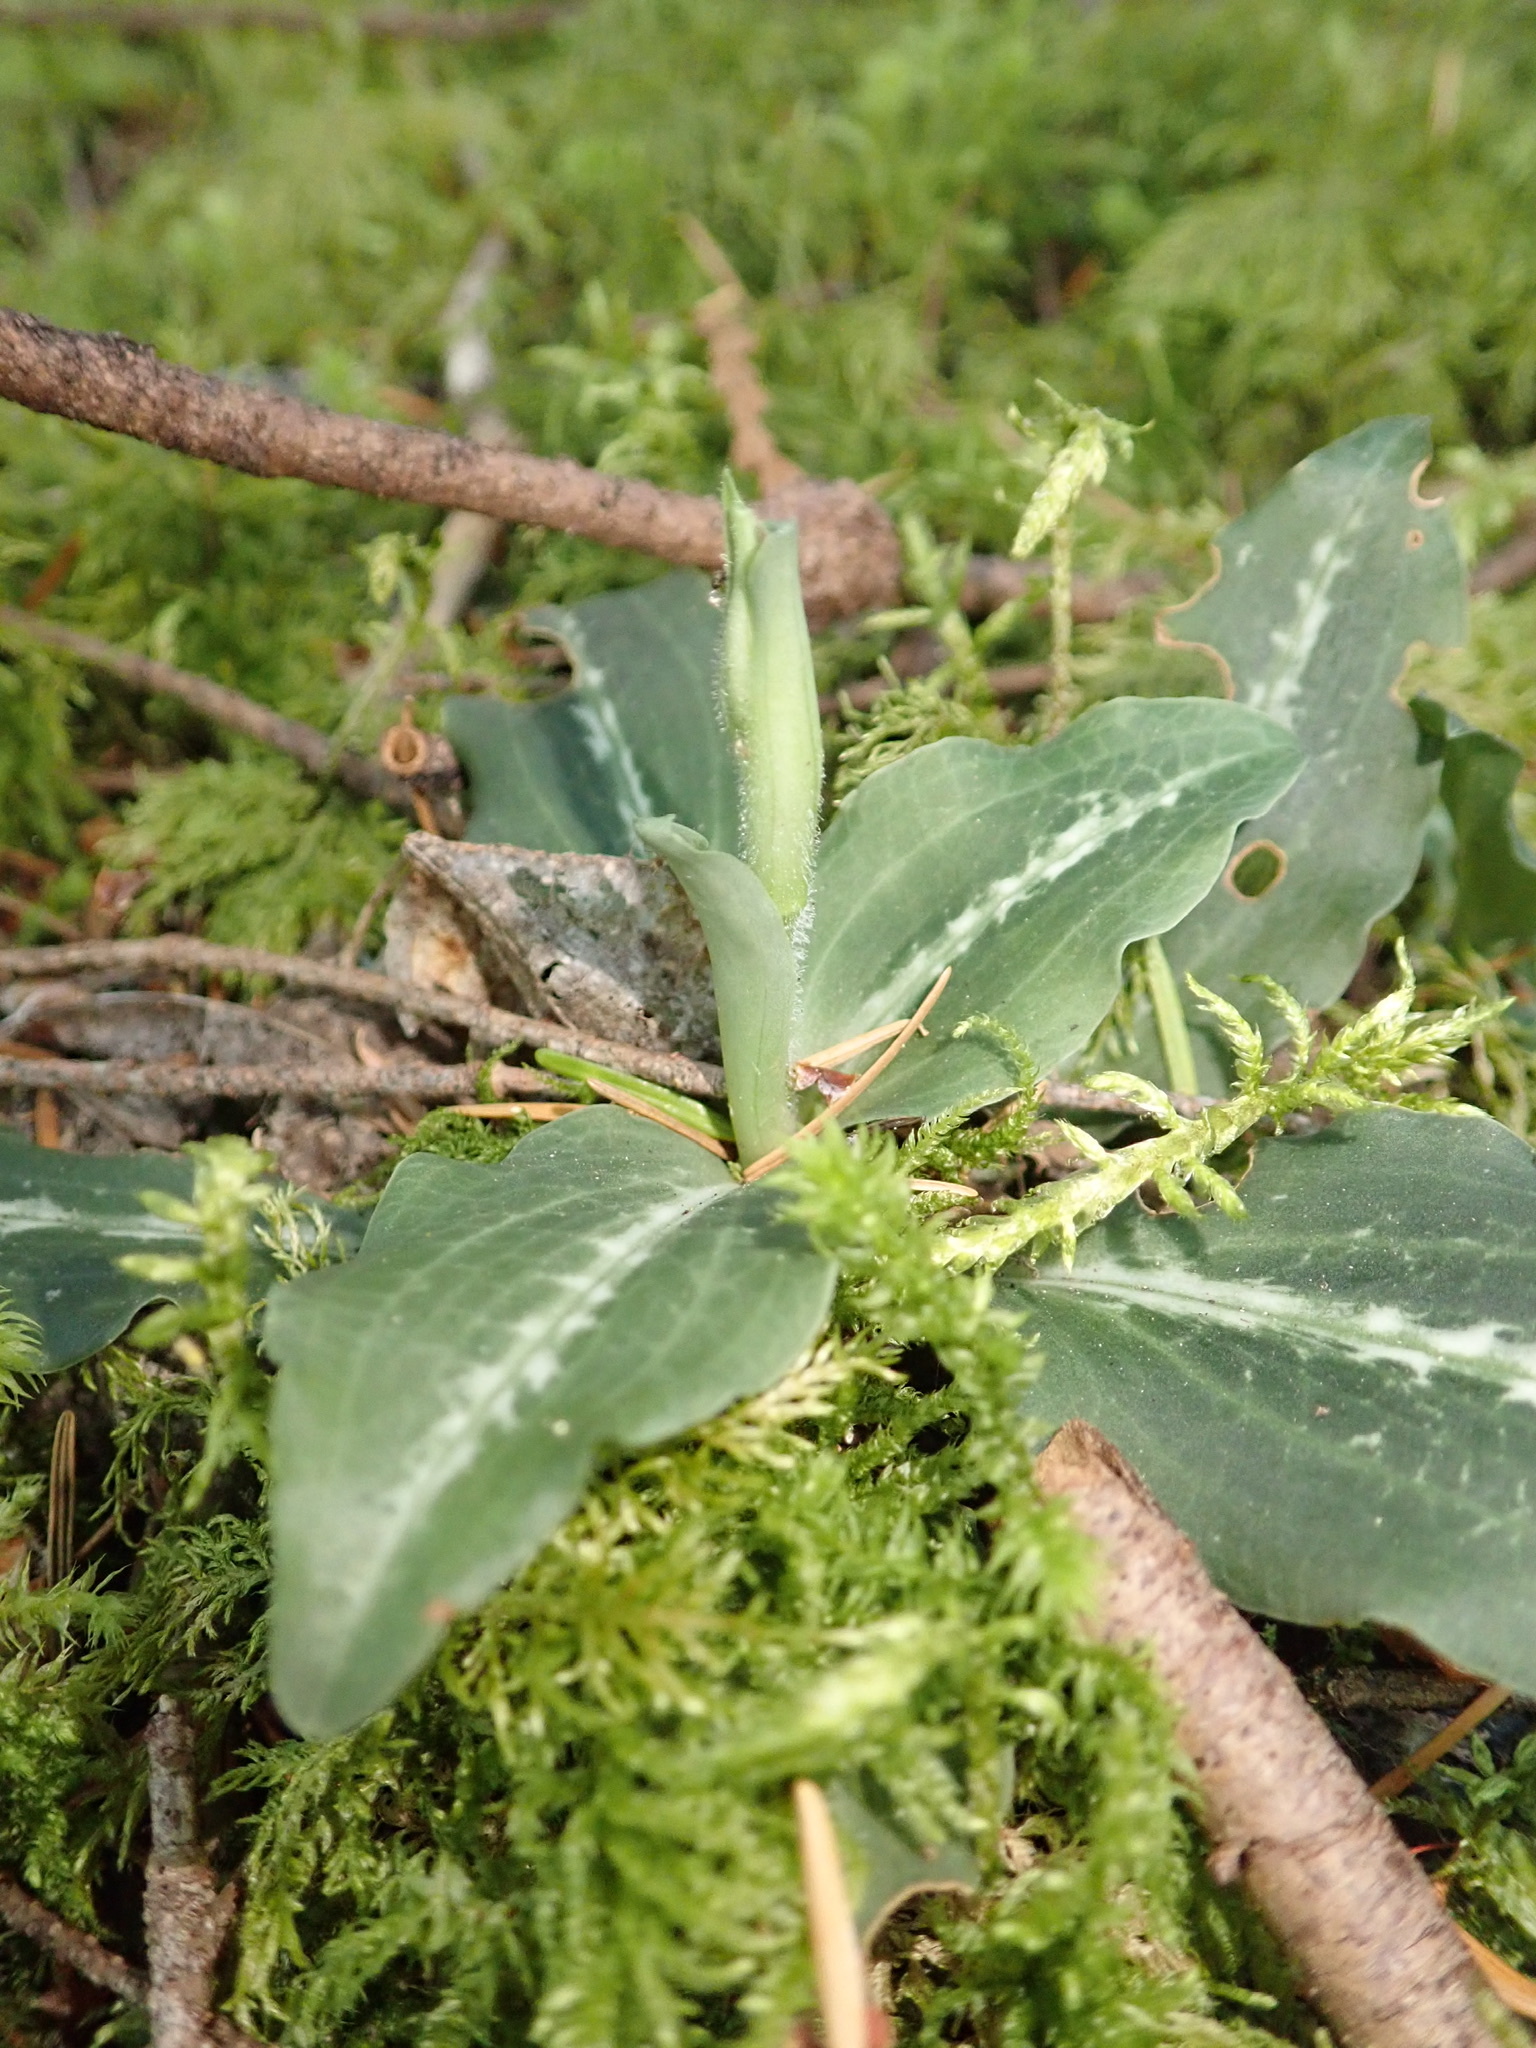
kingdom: Plantae
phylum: Tracheophyta
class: Liliopsida
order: Asparagales
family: Orchidaceae
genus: Goodyera
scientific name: Goodyera oblongifolia
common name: Giant rattlesnake-plantain
